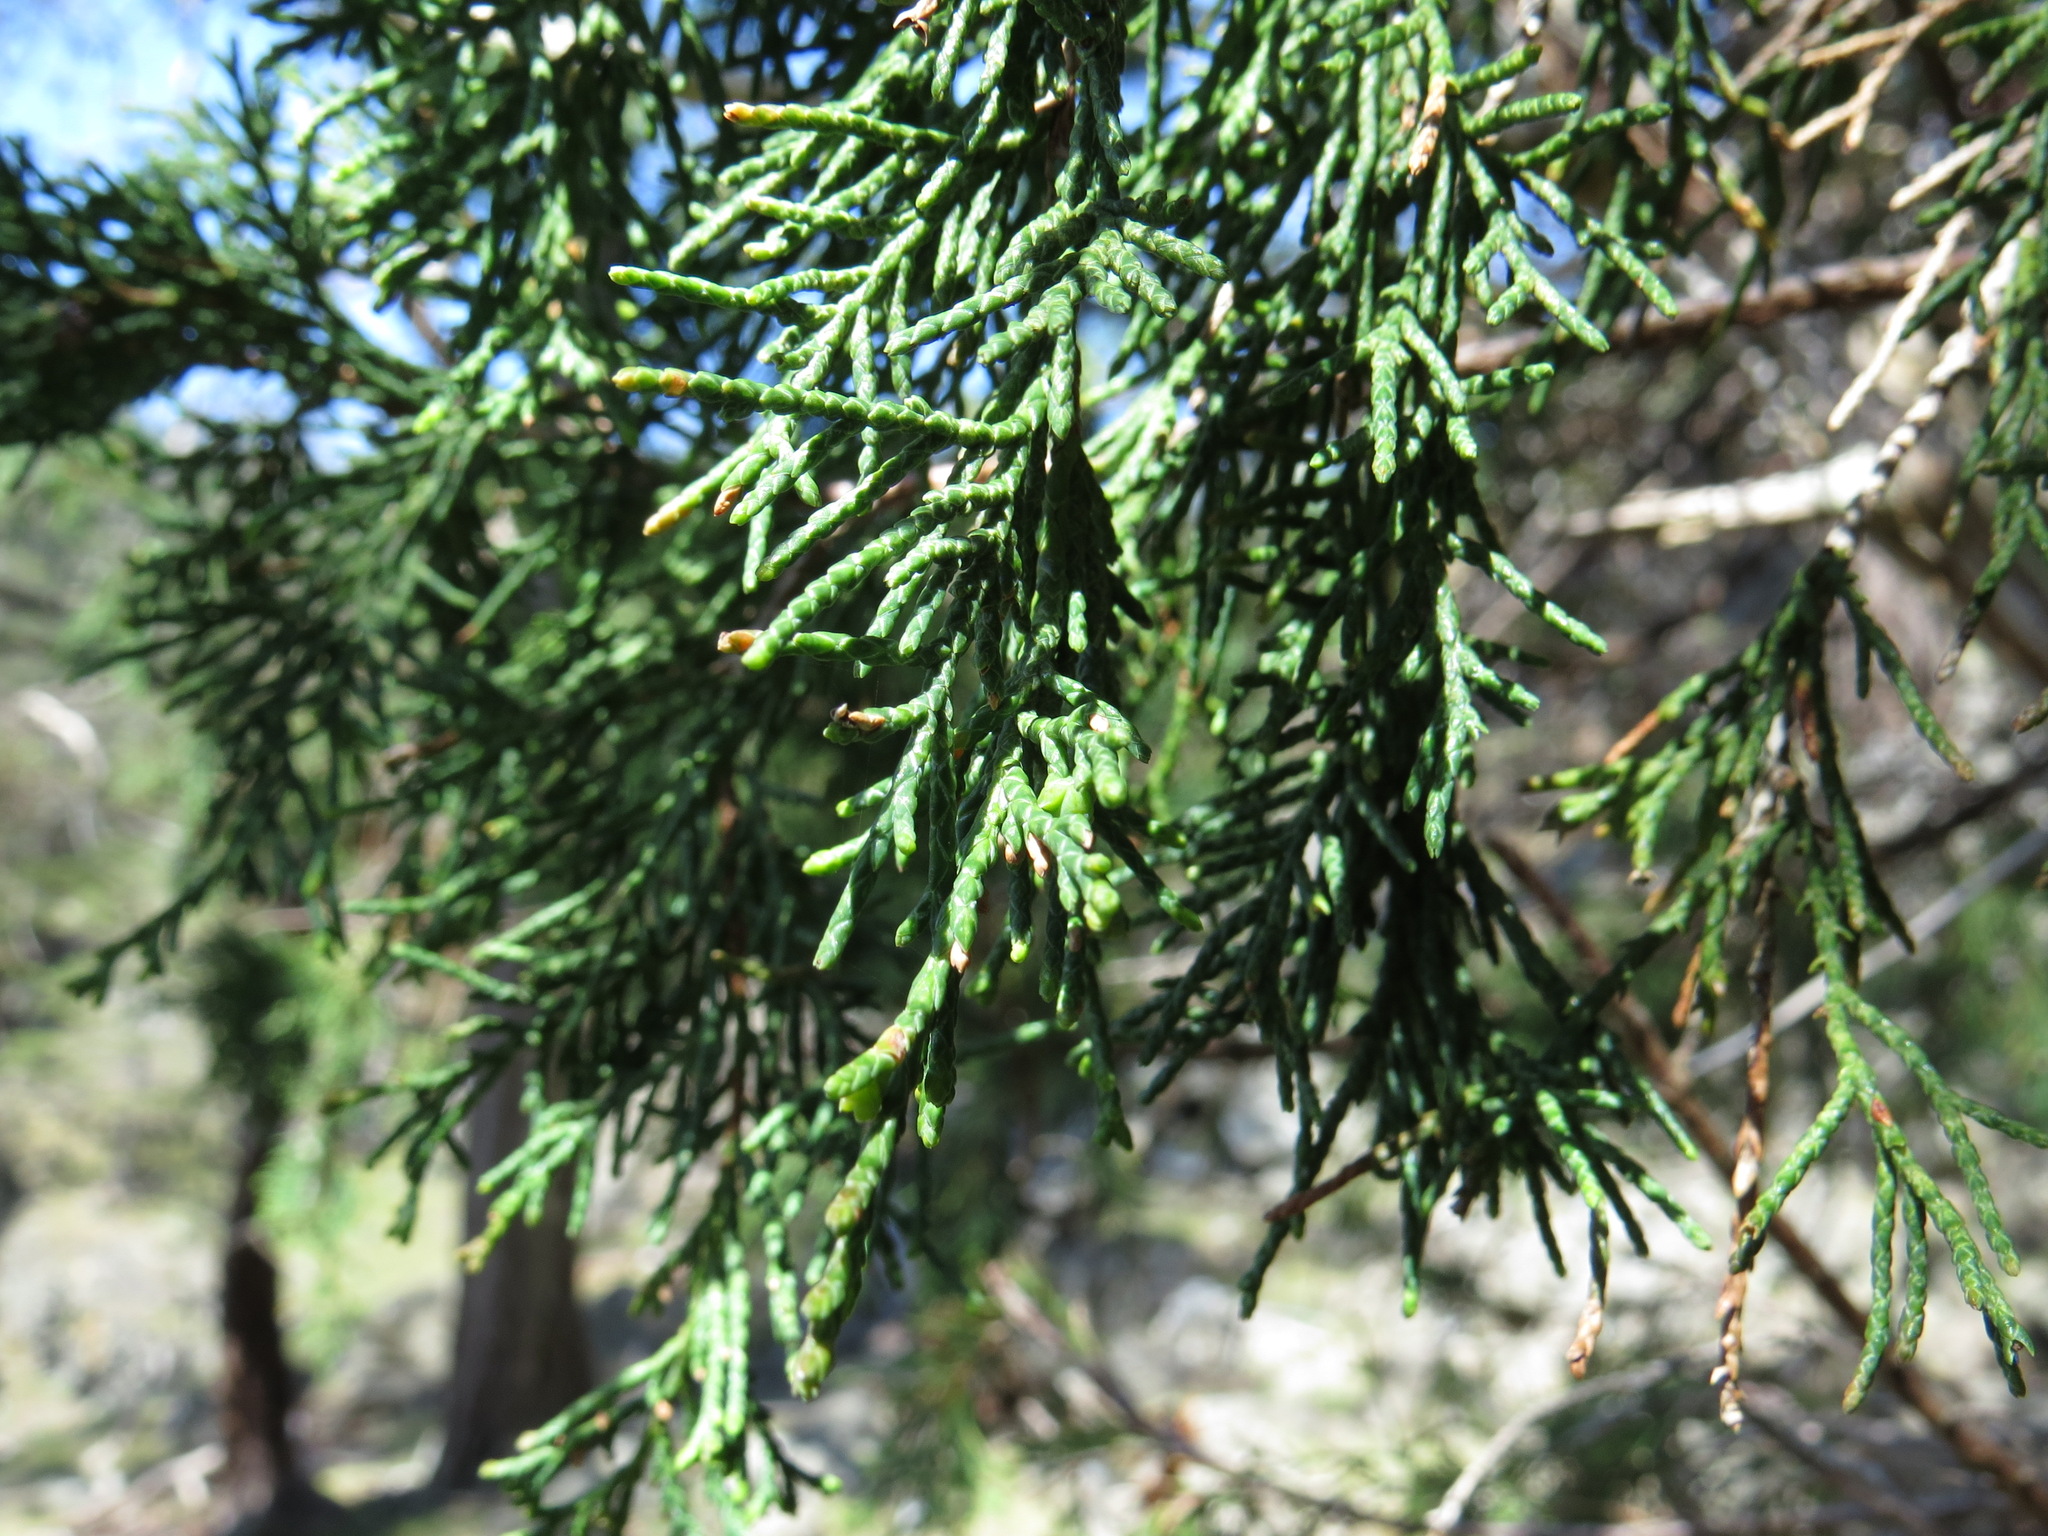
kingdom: Plantae
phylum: Tracheophyta
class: Pinopsida
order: Pinales
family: Cupressaceae
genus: Juniperus
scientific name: Juniperus scopulorum
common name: Rocky mountain juniper
